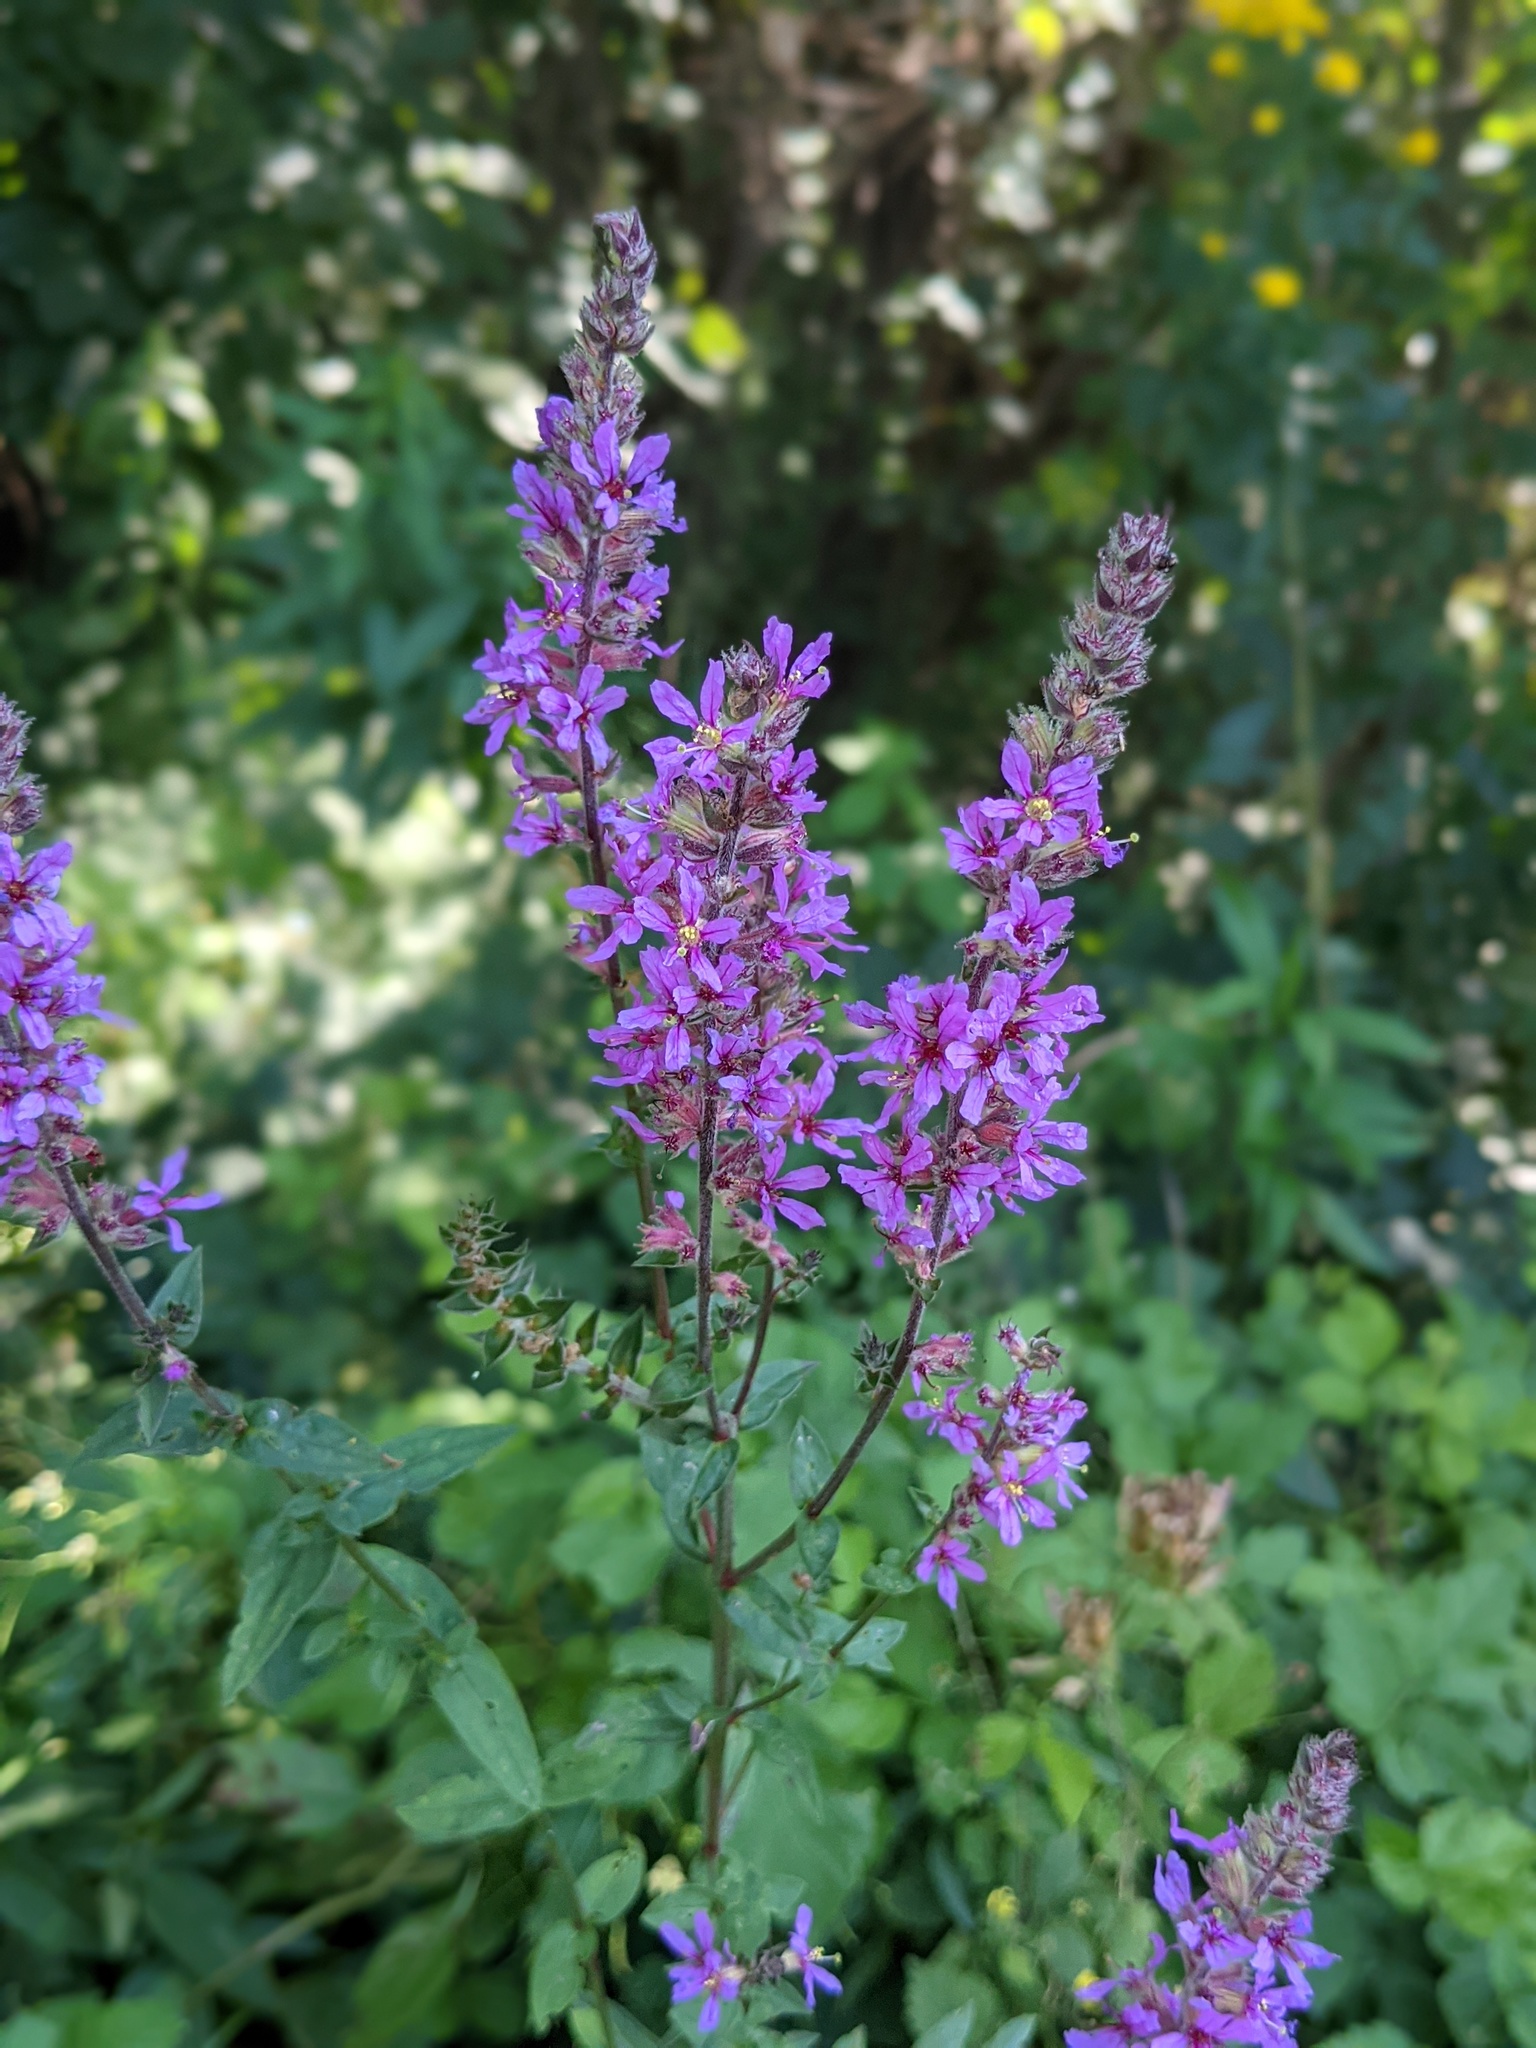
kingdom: Plantae
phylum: Tracheophyta
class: Magnoliopsida
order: Myrtales
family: Lythraceae
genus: Lythrum
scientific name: Lythrum salicaria
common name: Purple loosestrife
